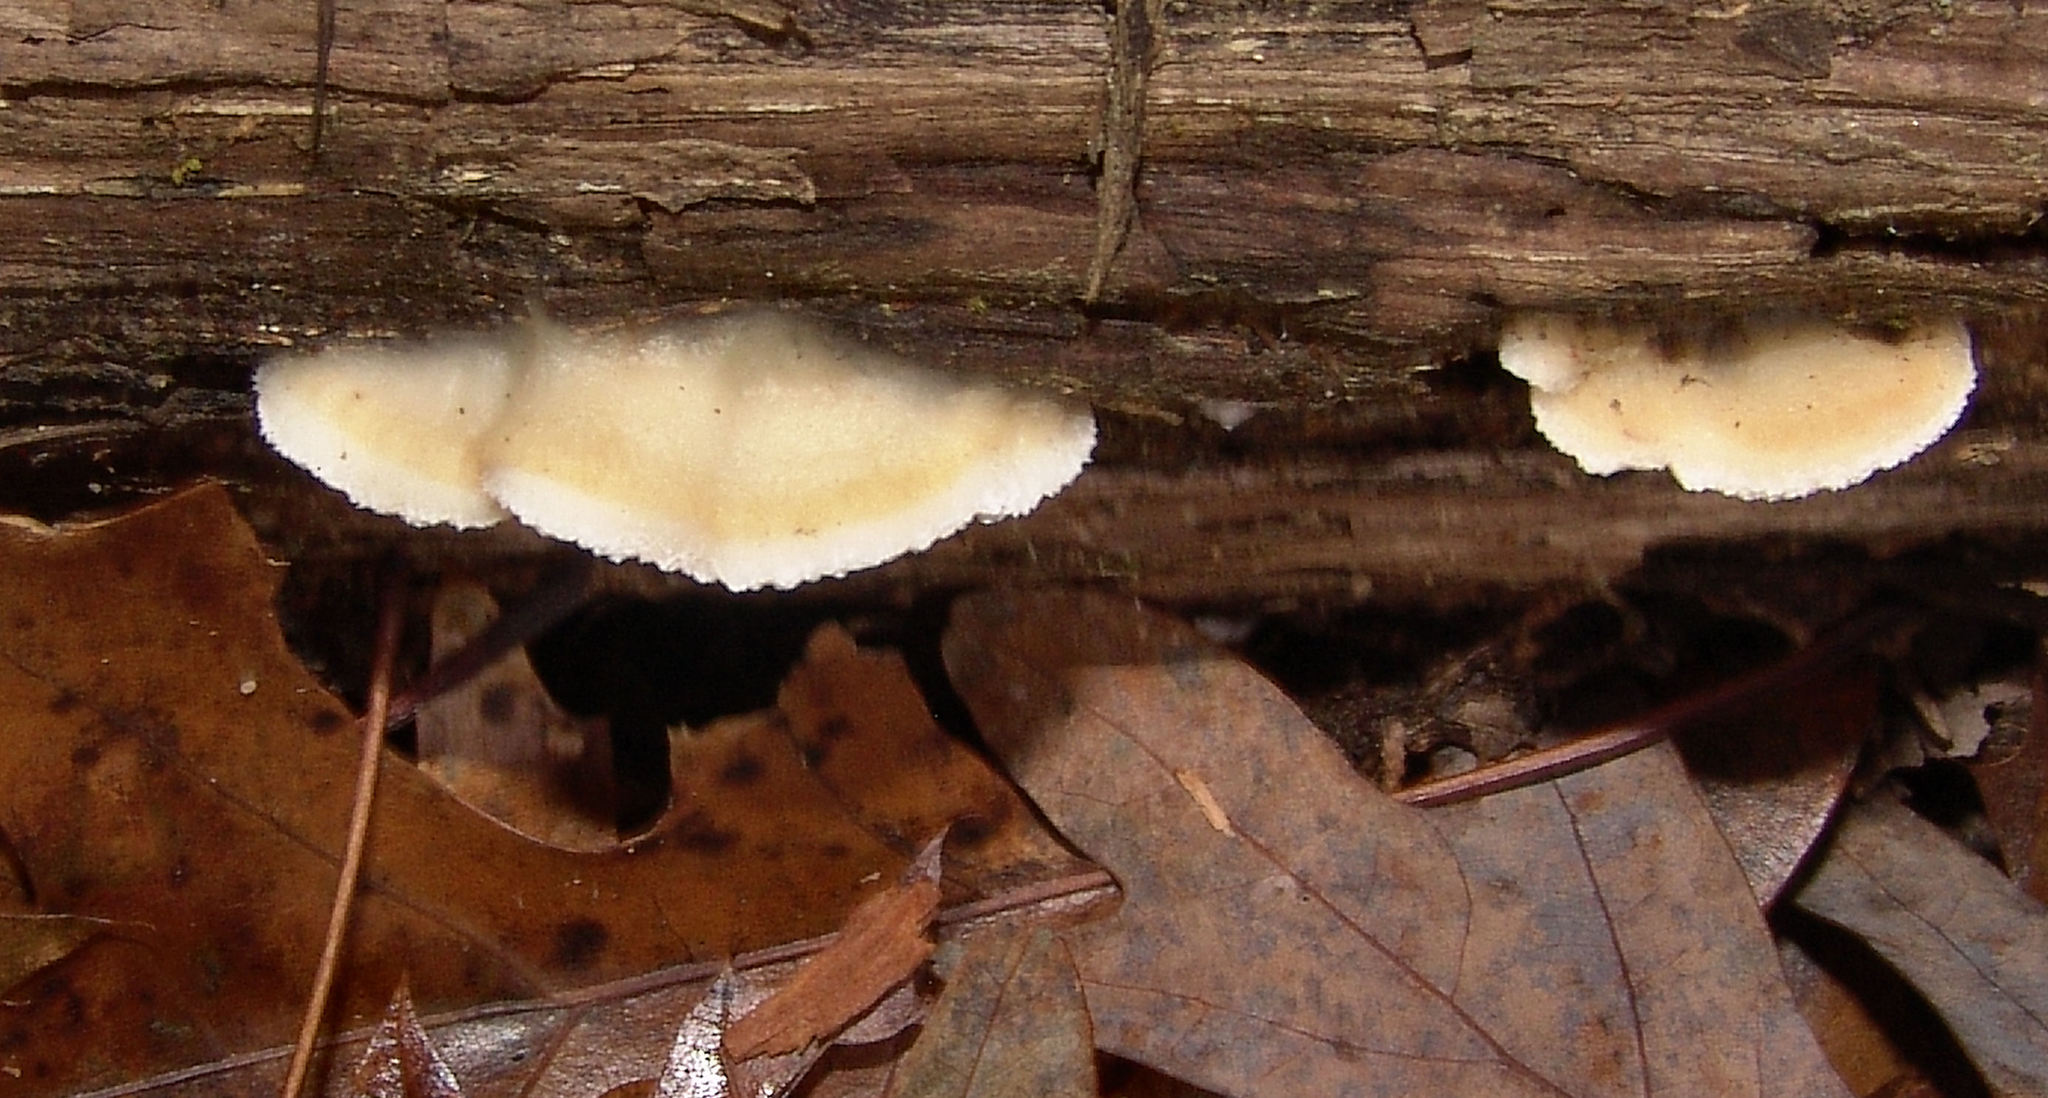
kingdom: Fungi
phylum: Basidiomycota
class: Agaricomycetes
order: Polyporales
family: Irpicaceae
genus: Vitreoporus
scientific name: Vitreoporus dichrous
